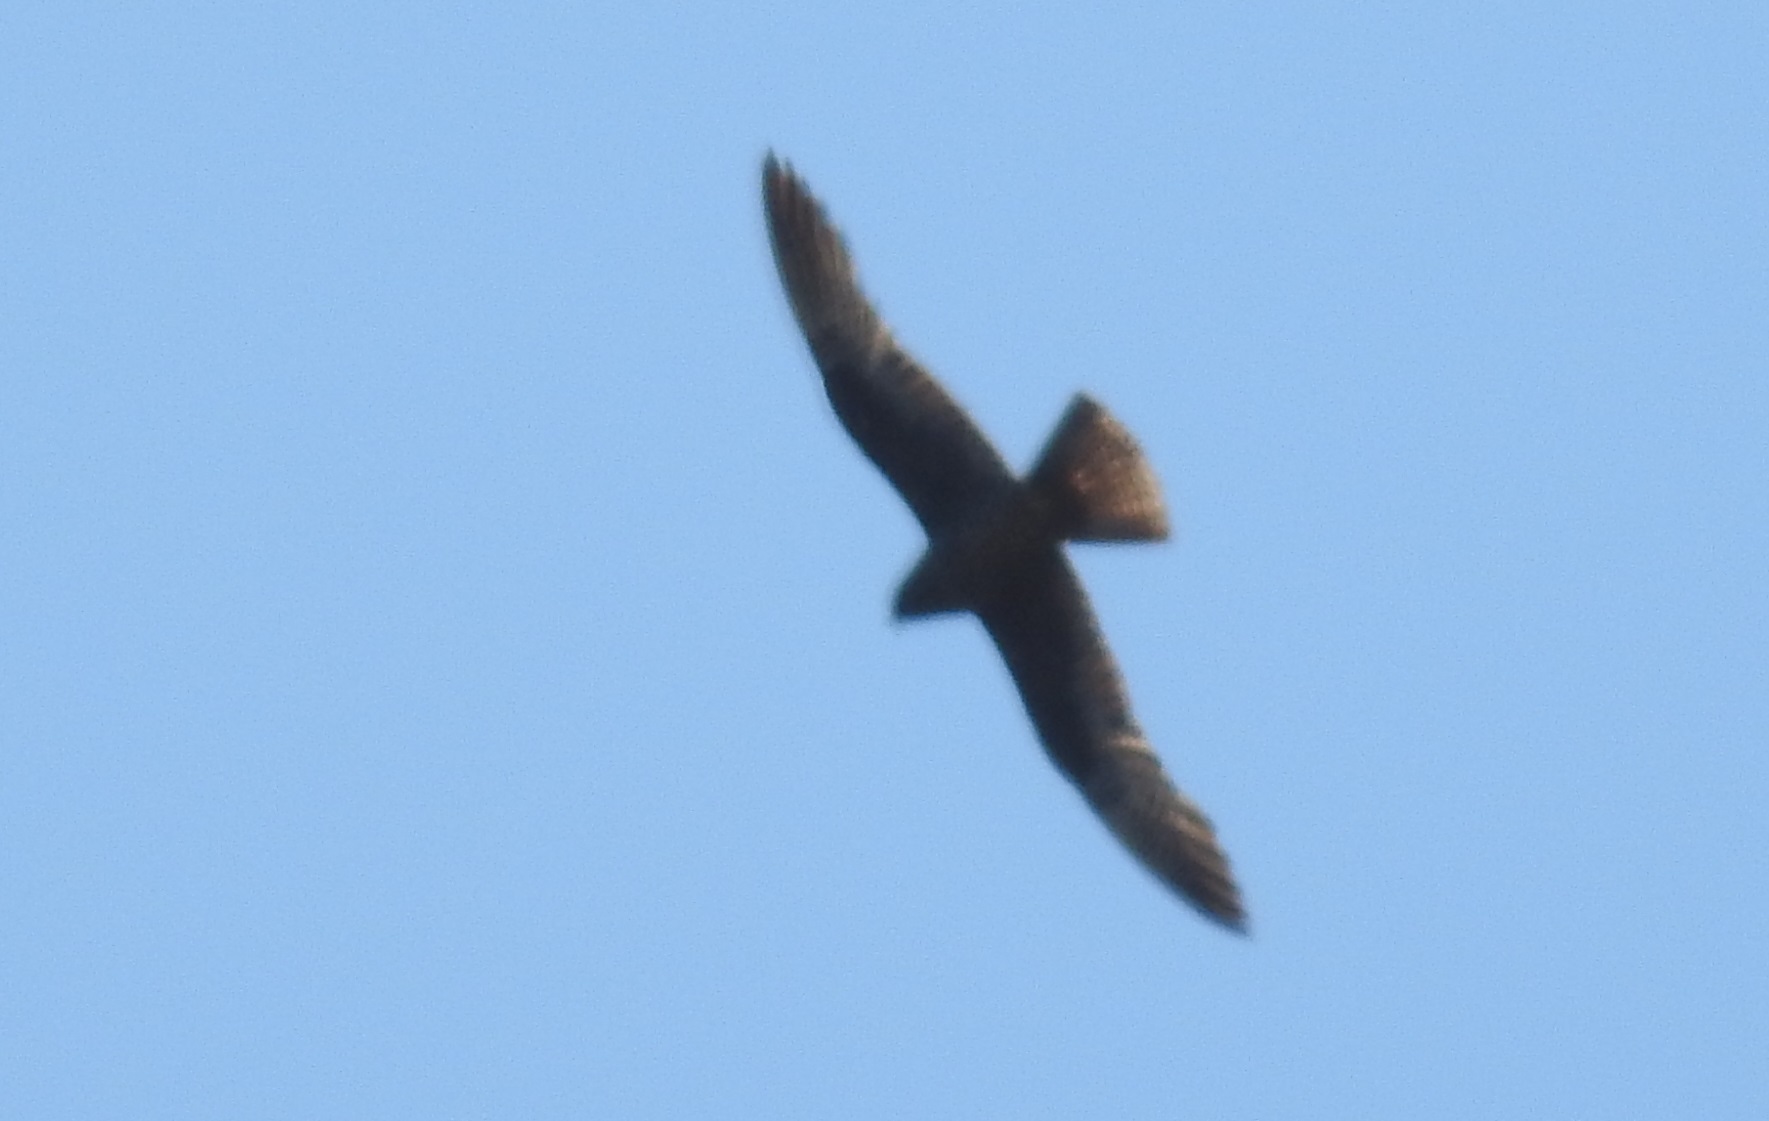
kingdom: Animalia
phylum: Chordata
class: Aves
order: Falconiformes
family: Falconidae
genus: Falco
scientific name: Falco eleonorae
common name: Eleonora's falcon
